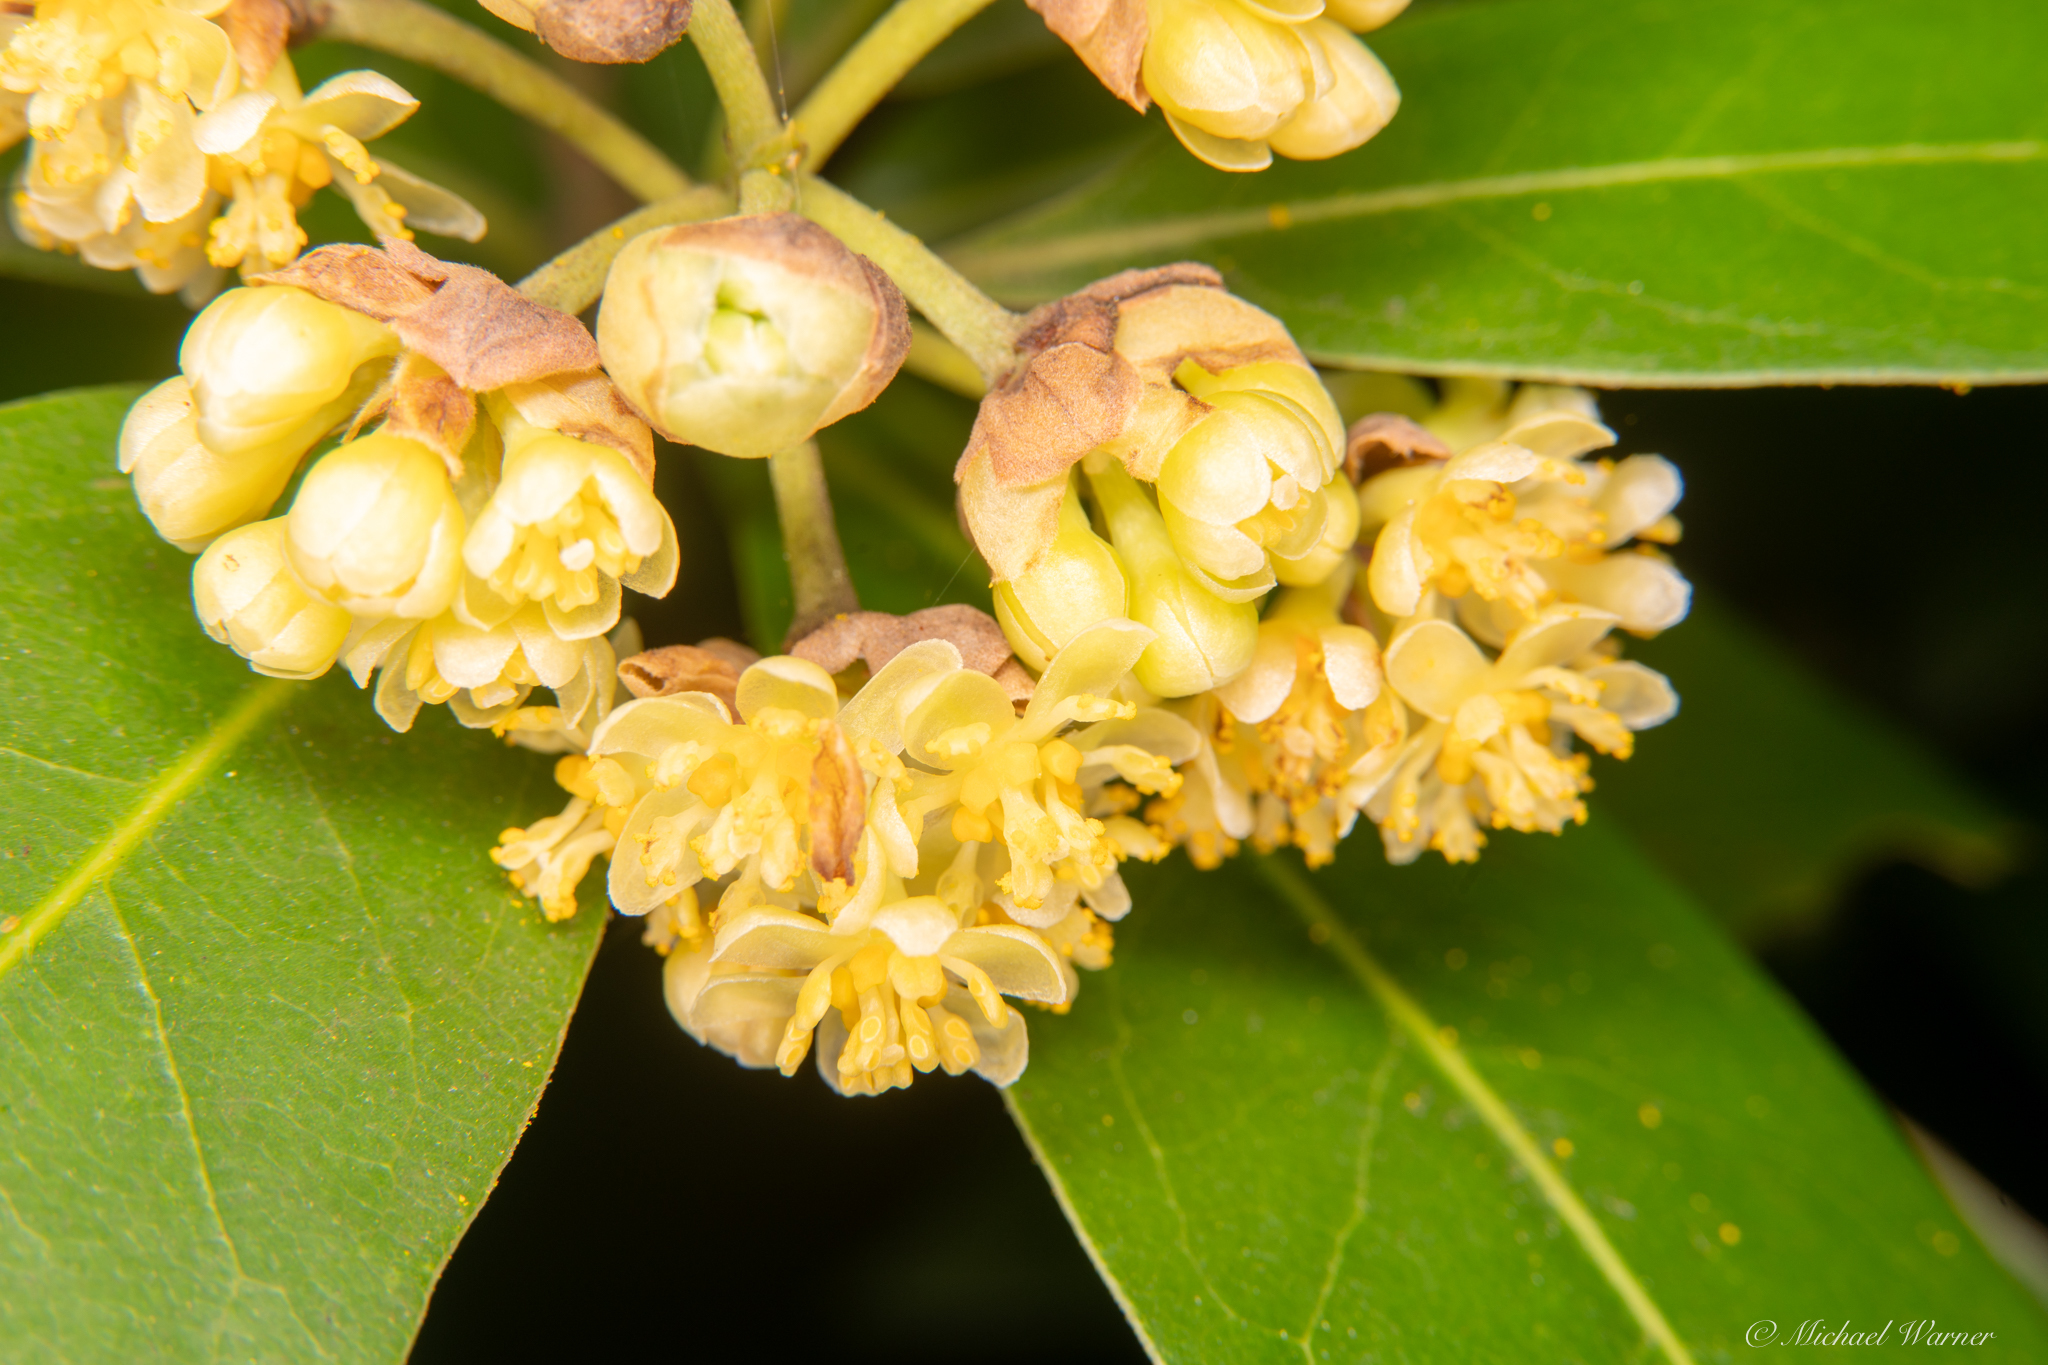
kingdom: Plantae
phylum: Tracheophyta
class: Magnoliopsida
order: Laurales
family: Lauraceae
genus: Umbellularia
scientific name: Umbellularia californica
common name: California bay
